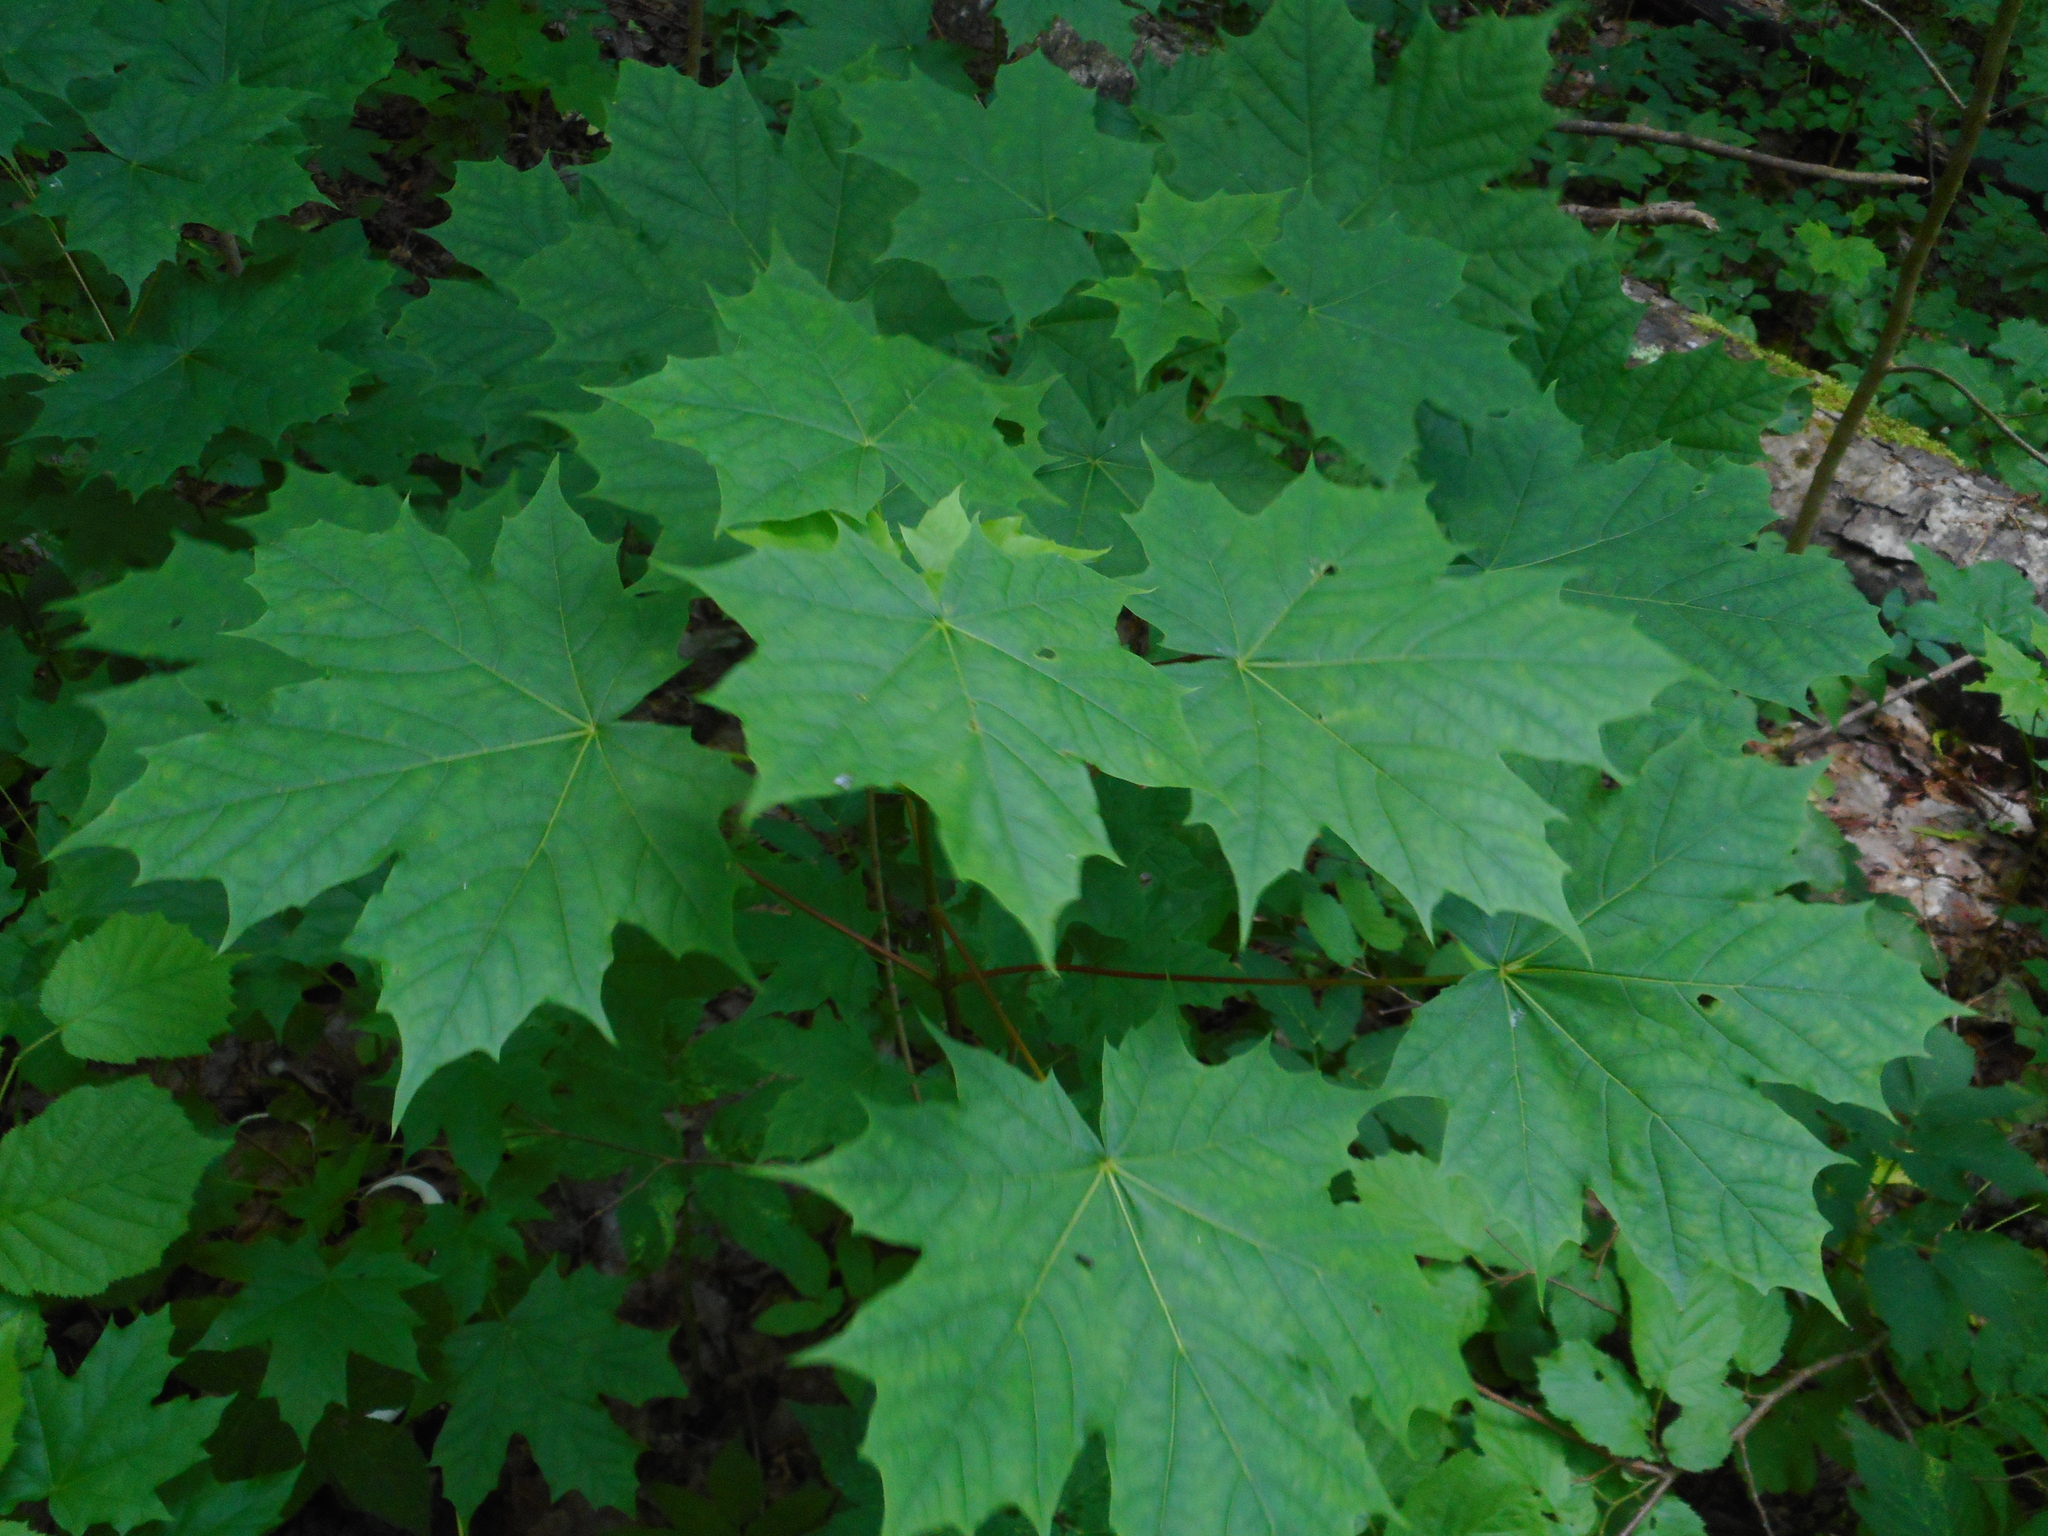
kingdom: Plantae
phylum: Tracheophyta
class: Magnoliopsida
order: Sapindales
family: Sapindaceae
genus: Acer
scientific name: Acer platanoides
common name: Norway maple
